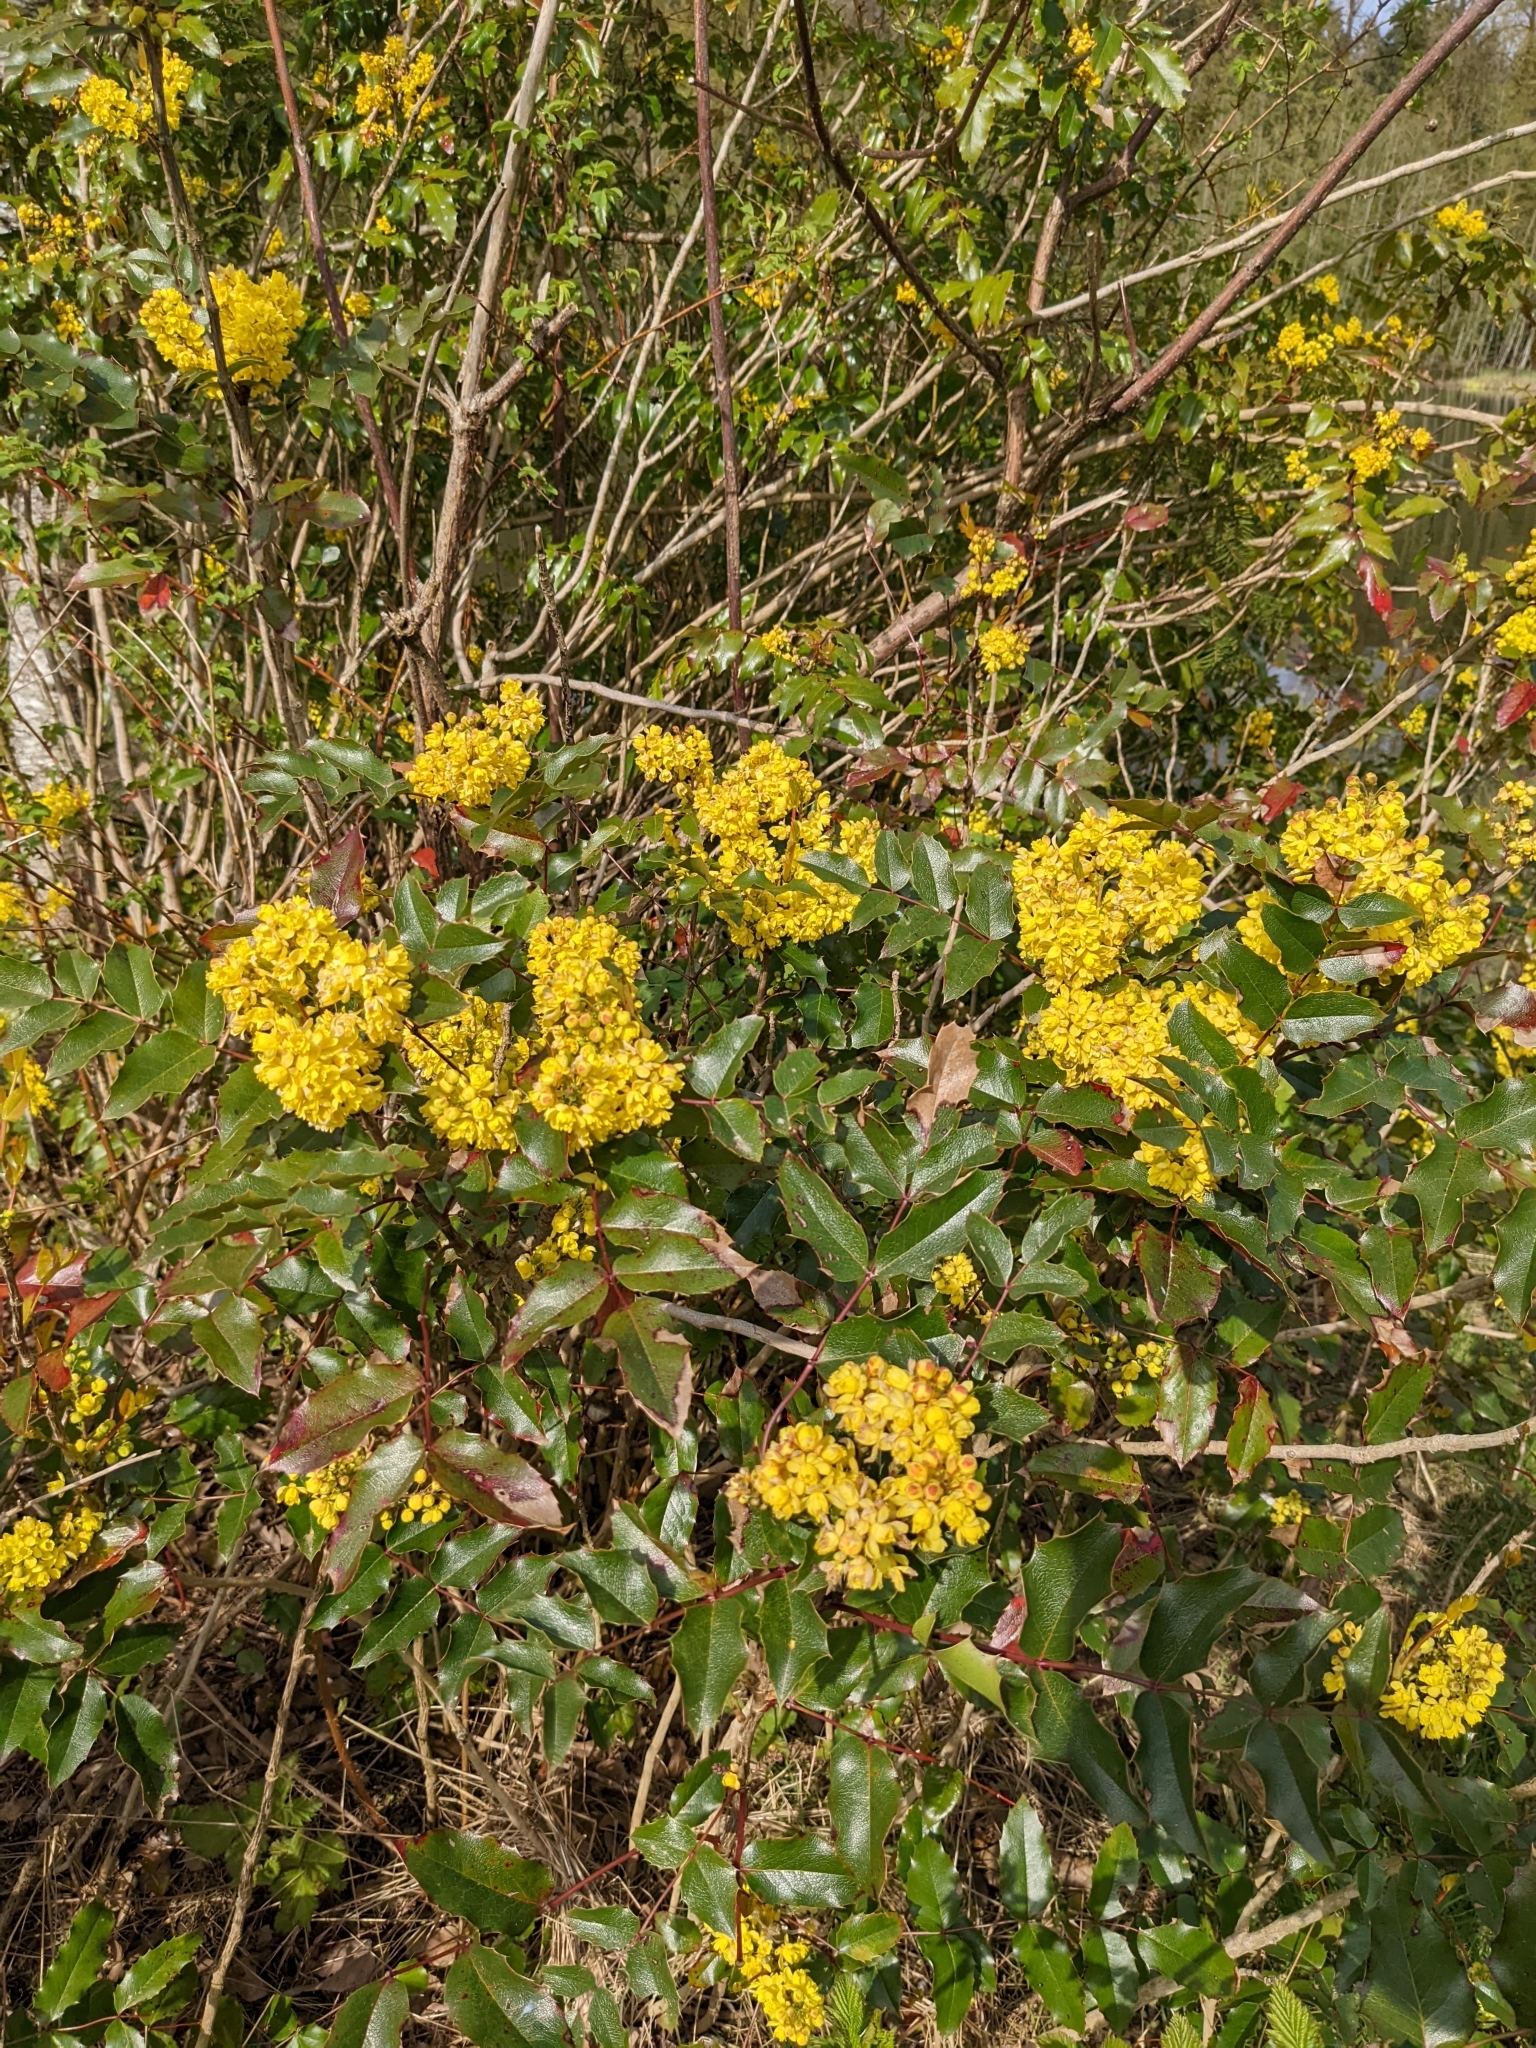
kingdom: Plantae
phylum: Tracheophyta
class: Magnoliopsida
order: Ranunculales
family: Berberidaceae
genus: Mahonia
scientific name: Mahonia aquifolium
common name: Oregon-grape
